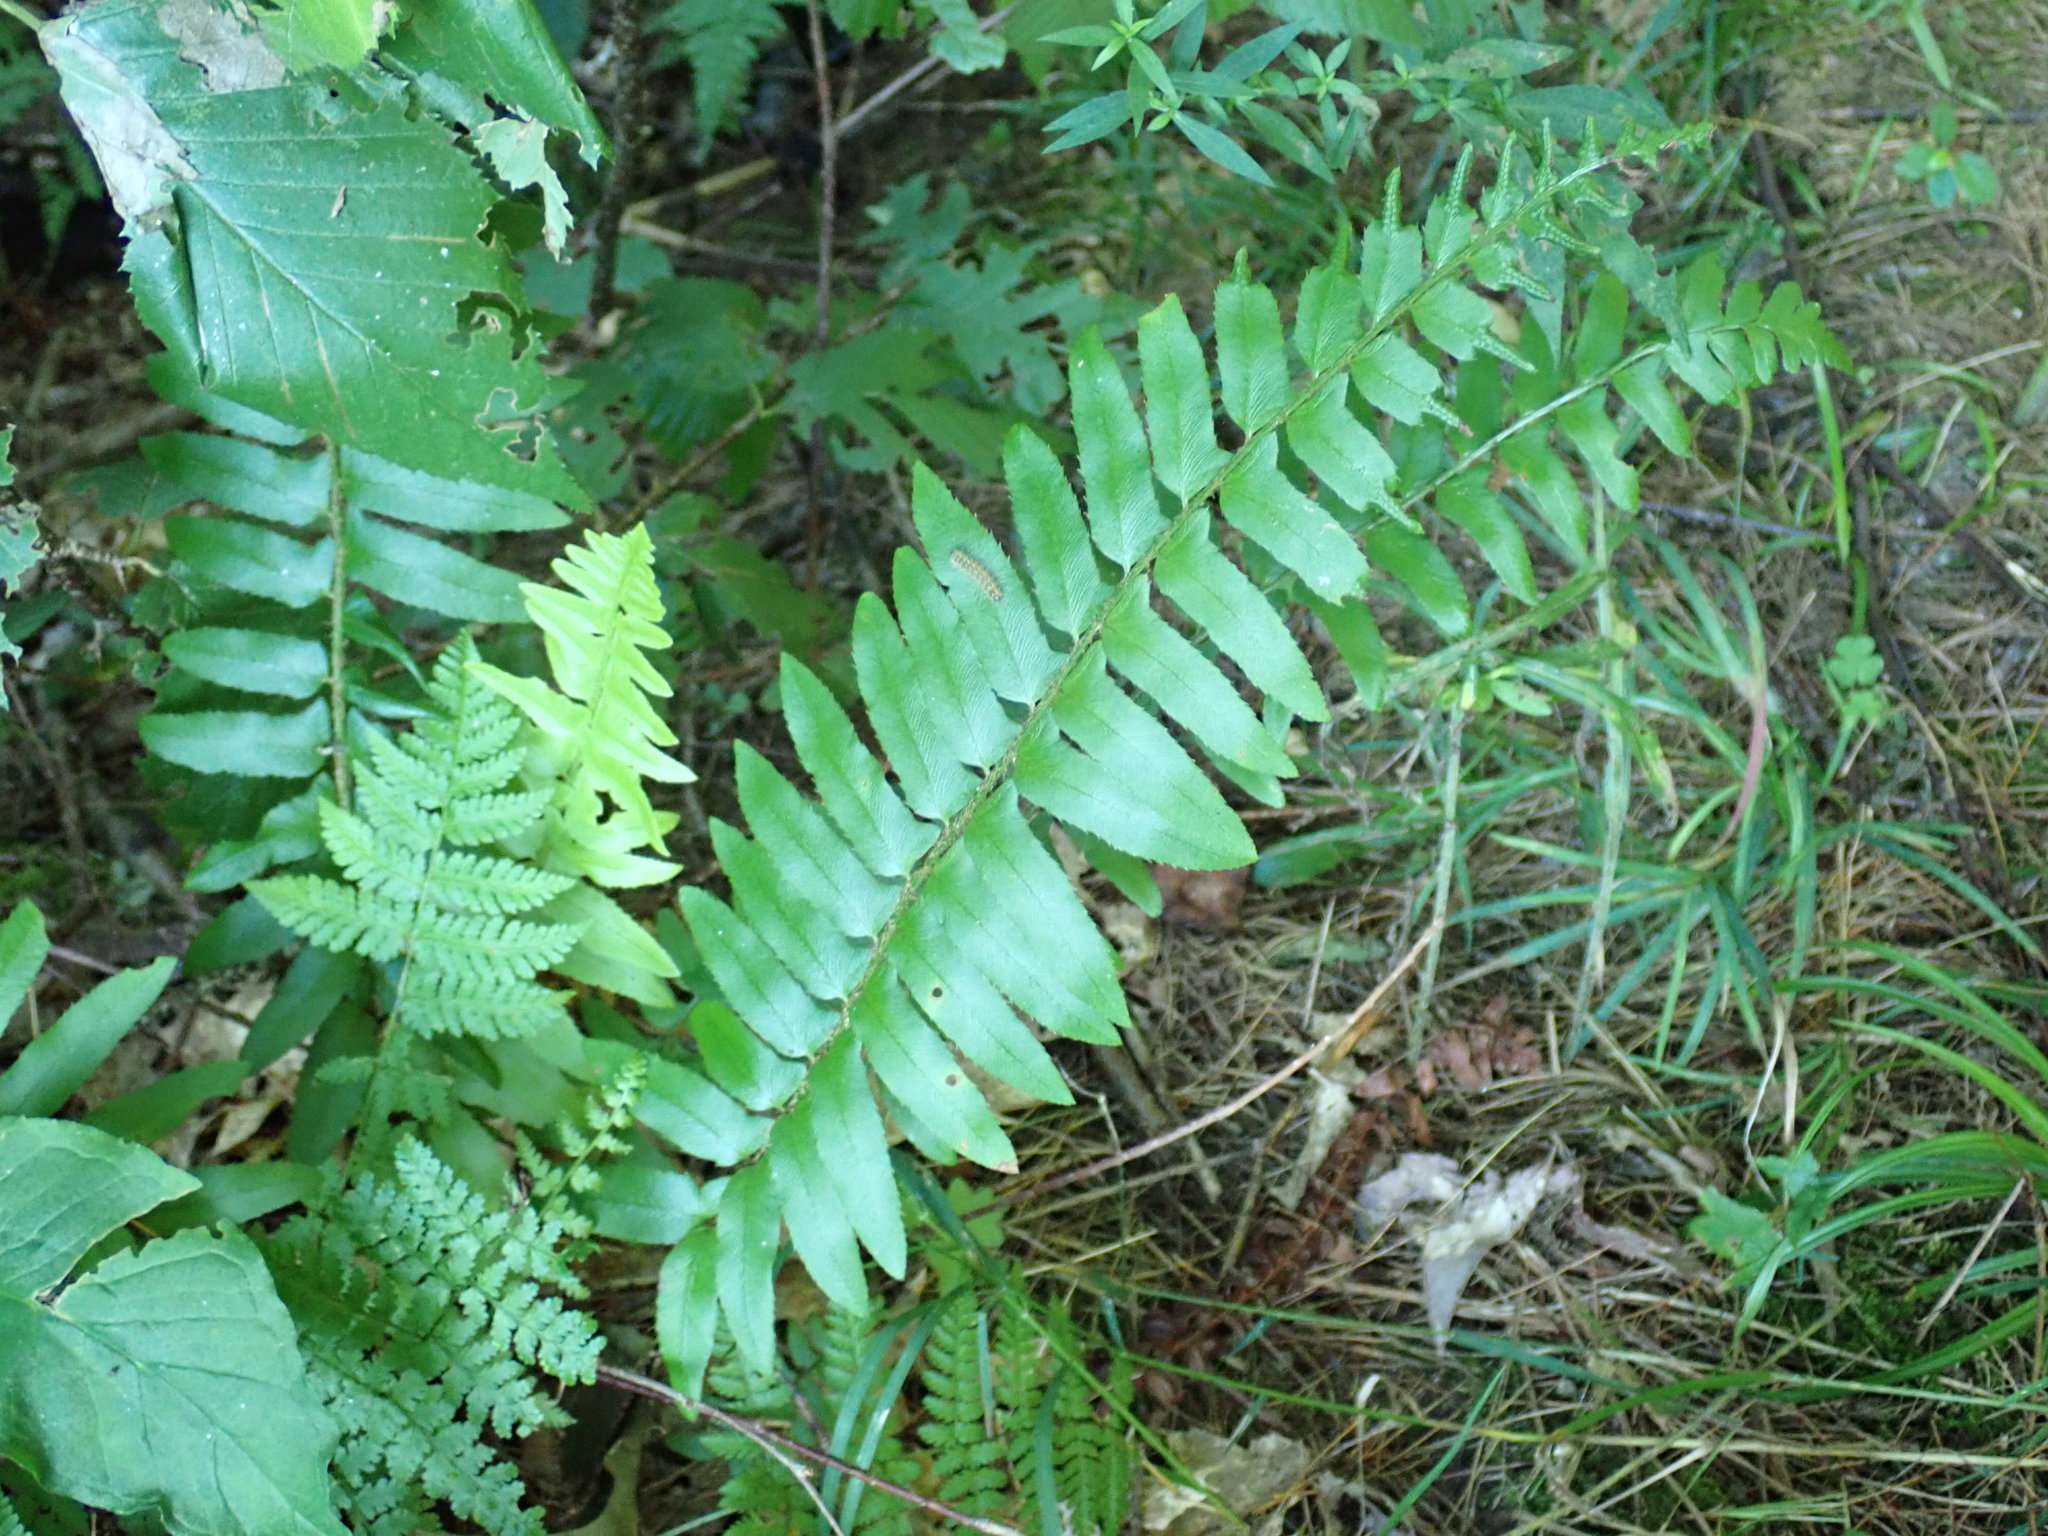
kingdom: Plantae
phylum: Tracheophyta
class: Polypodiopsida
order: Polypodiales
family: Dryopteridaceae
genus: Polystichum
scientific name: Polystichum acrostichoides
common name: Christmas fern
